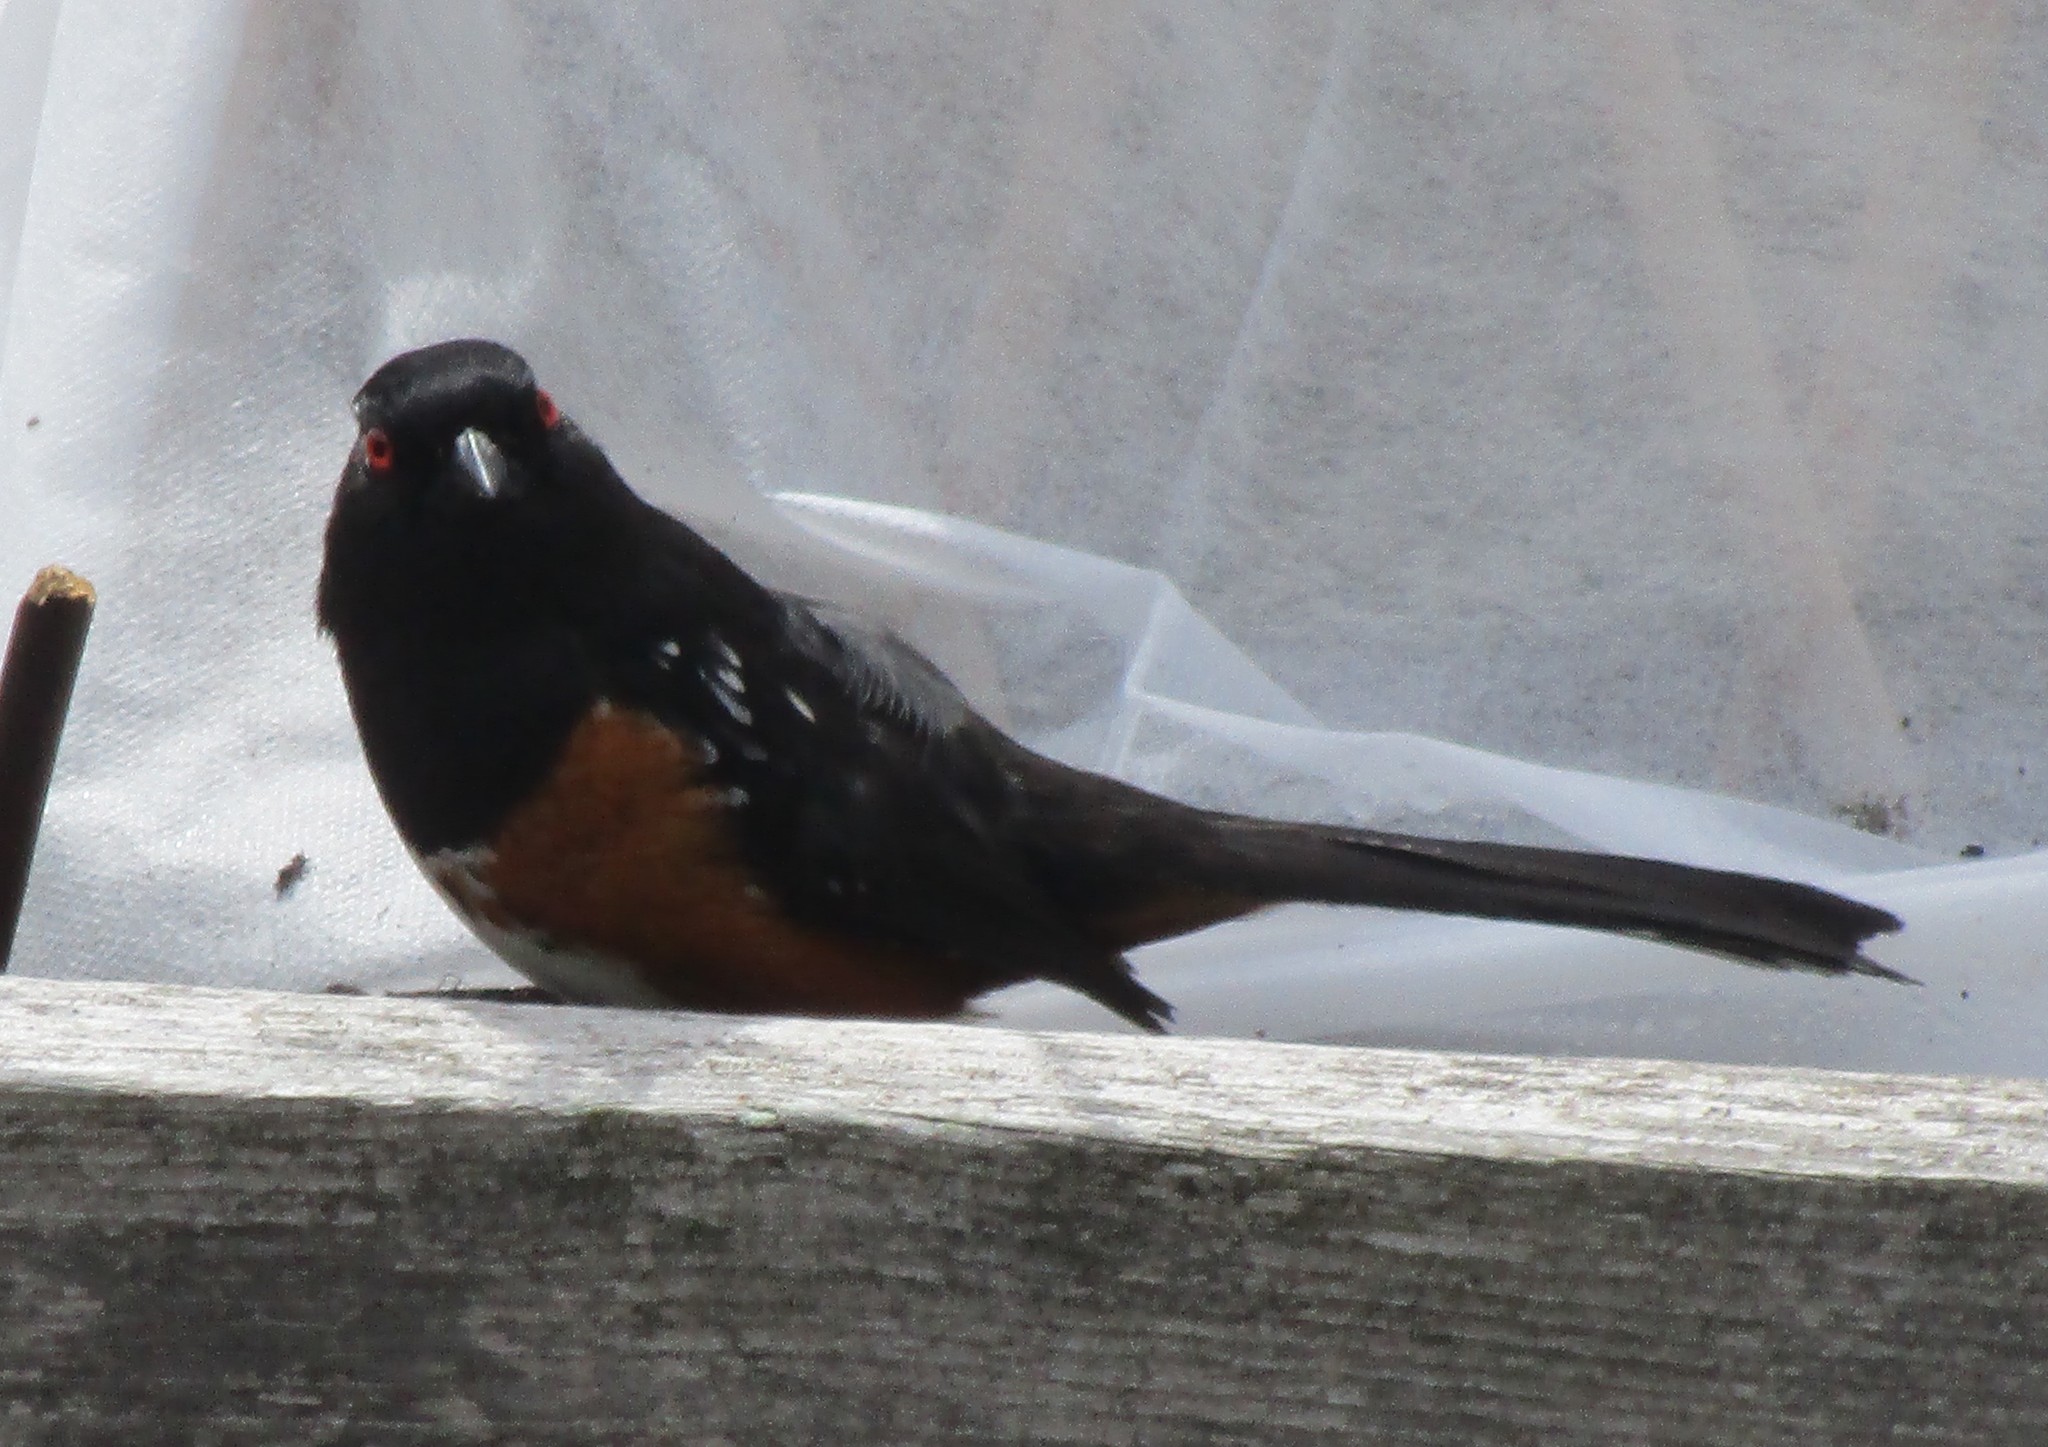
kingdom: Animalia
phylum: Chordata
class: Aves
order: Passeriformes
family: Passerellidae
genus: Pipilo
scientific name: Pipilo maculatus
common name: Spotted towhee
